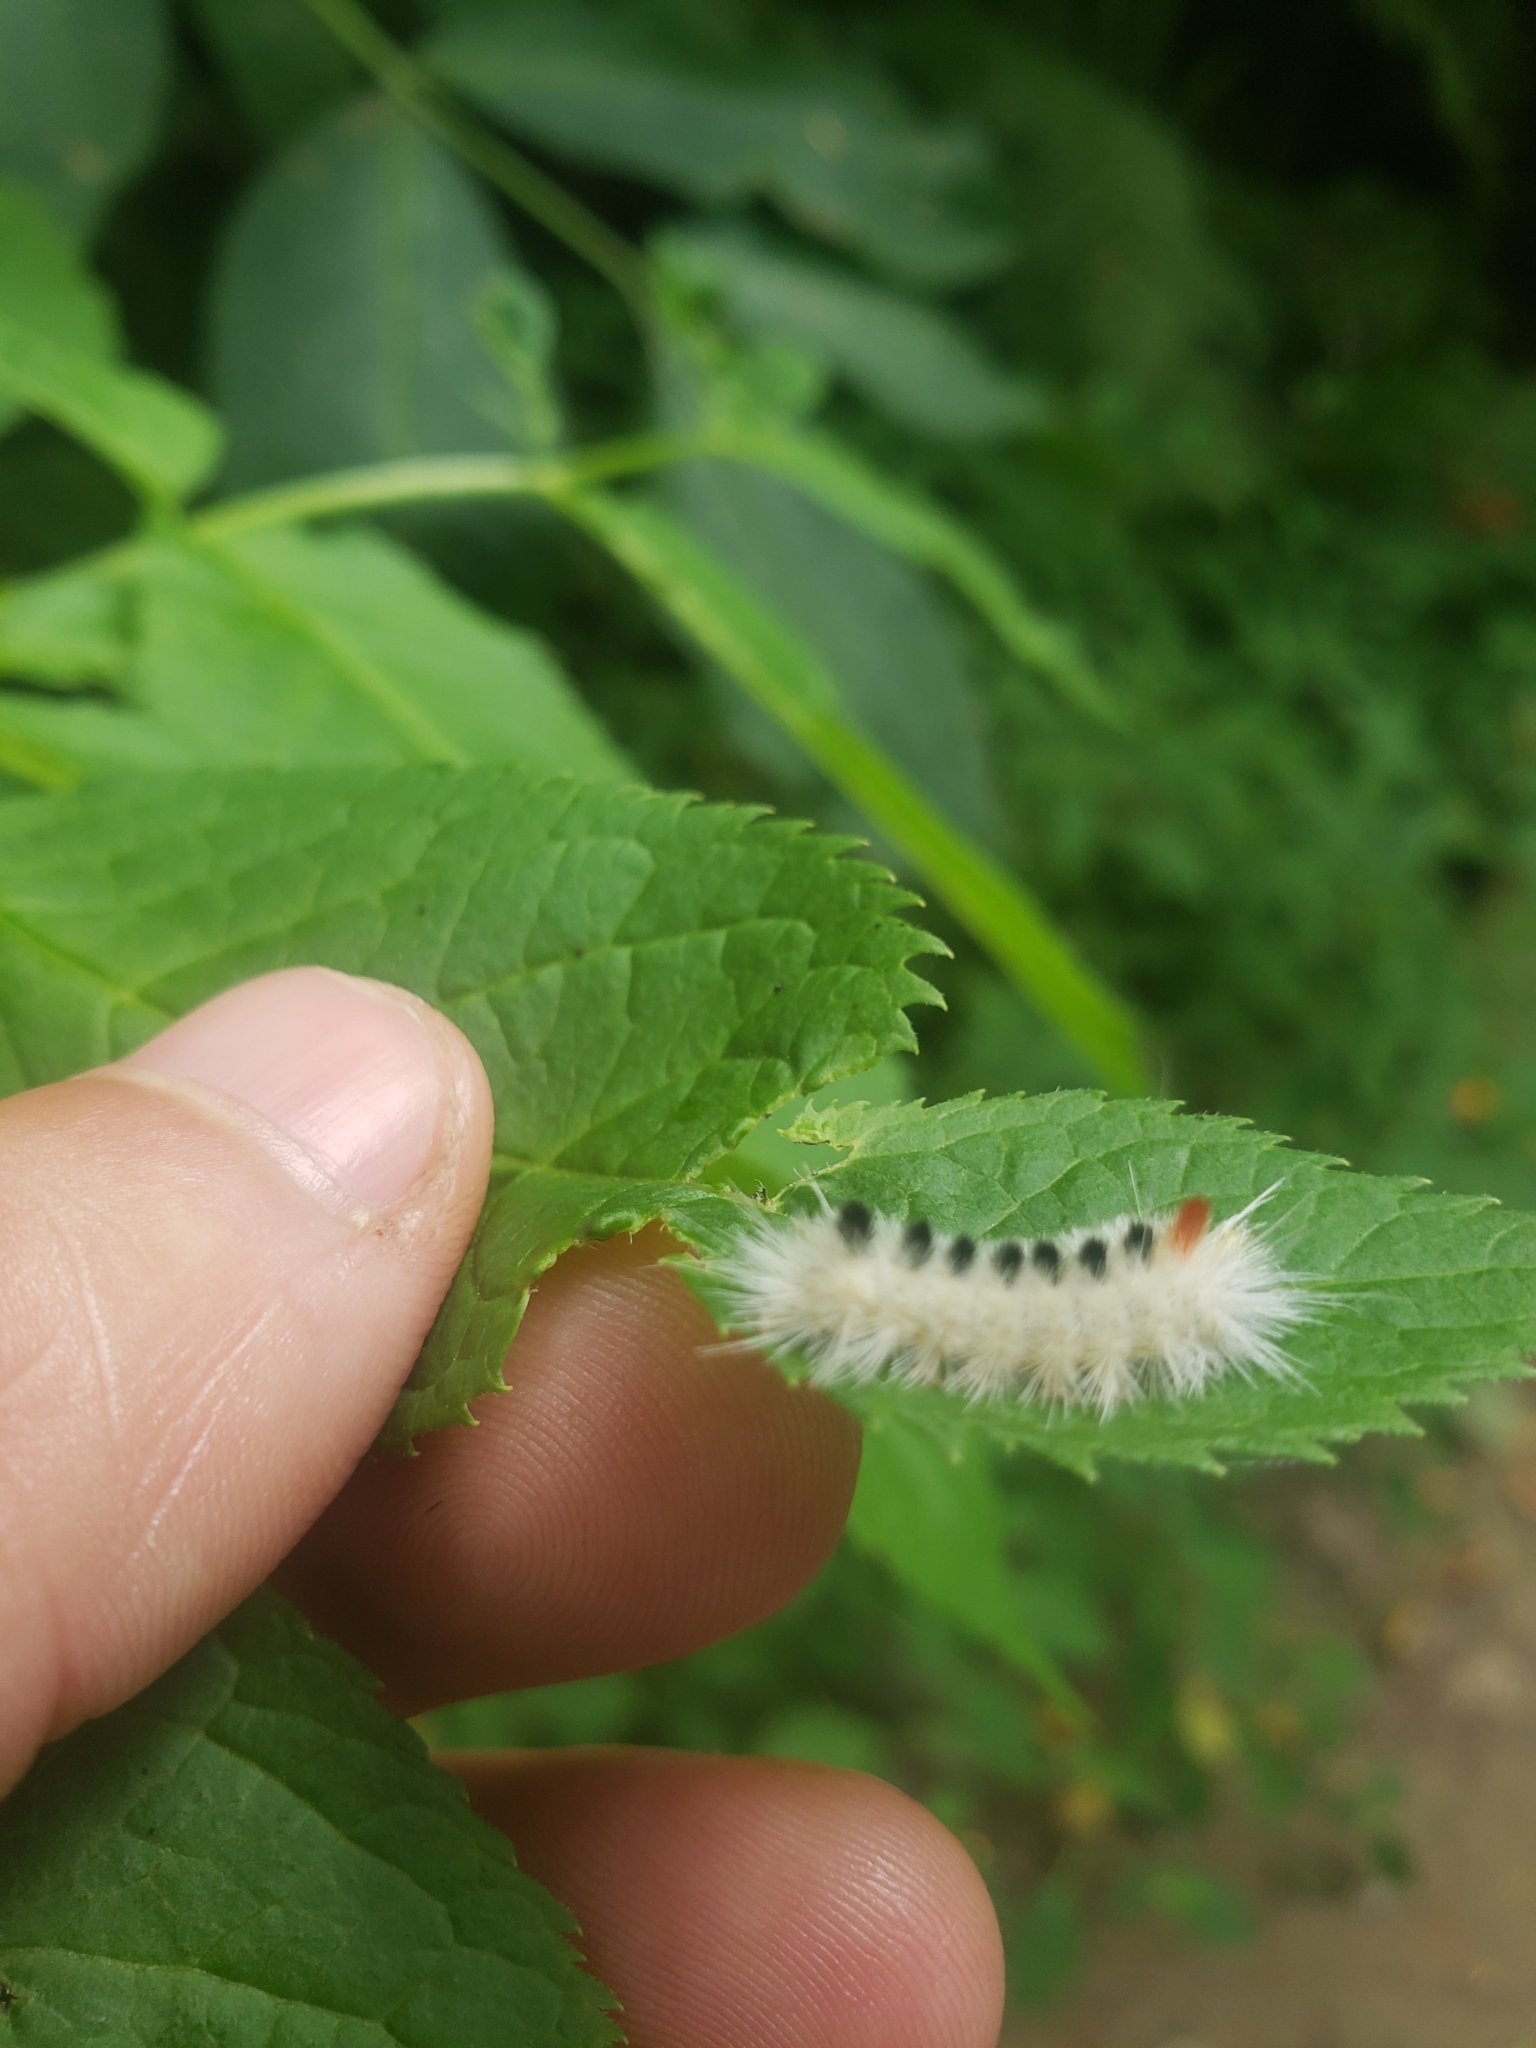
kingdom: Animalia
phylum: Arthropoda
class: Insecta
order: Lepidoptera
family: Erebidae
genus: Lophocampa
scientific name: Lophocampa maculata
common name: Spotted tussock moth
